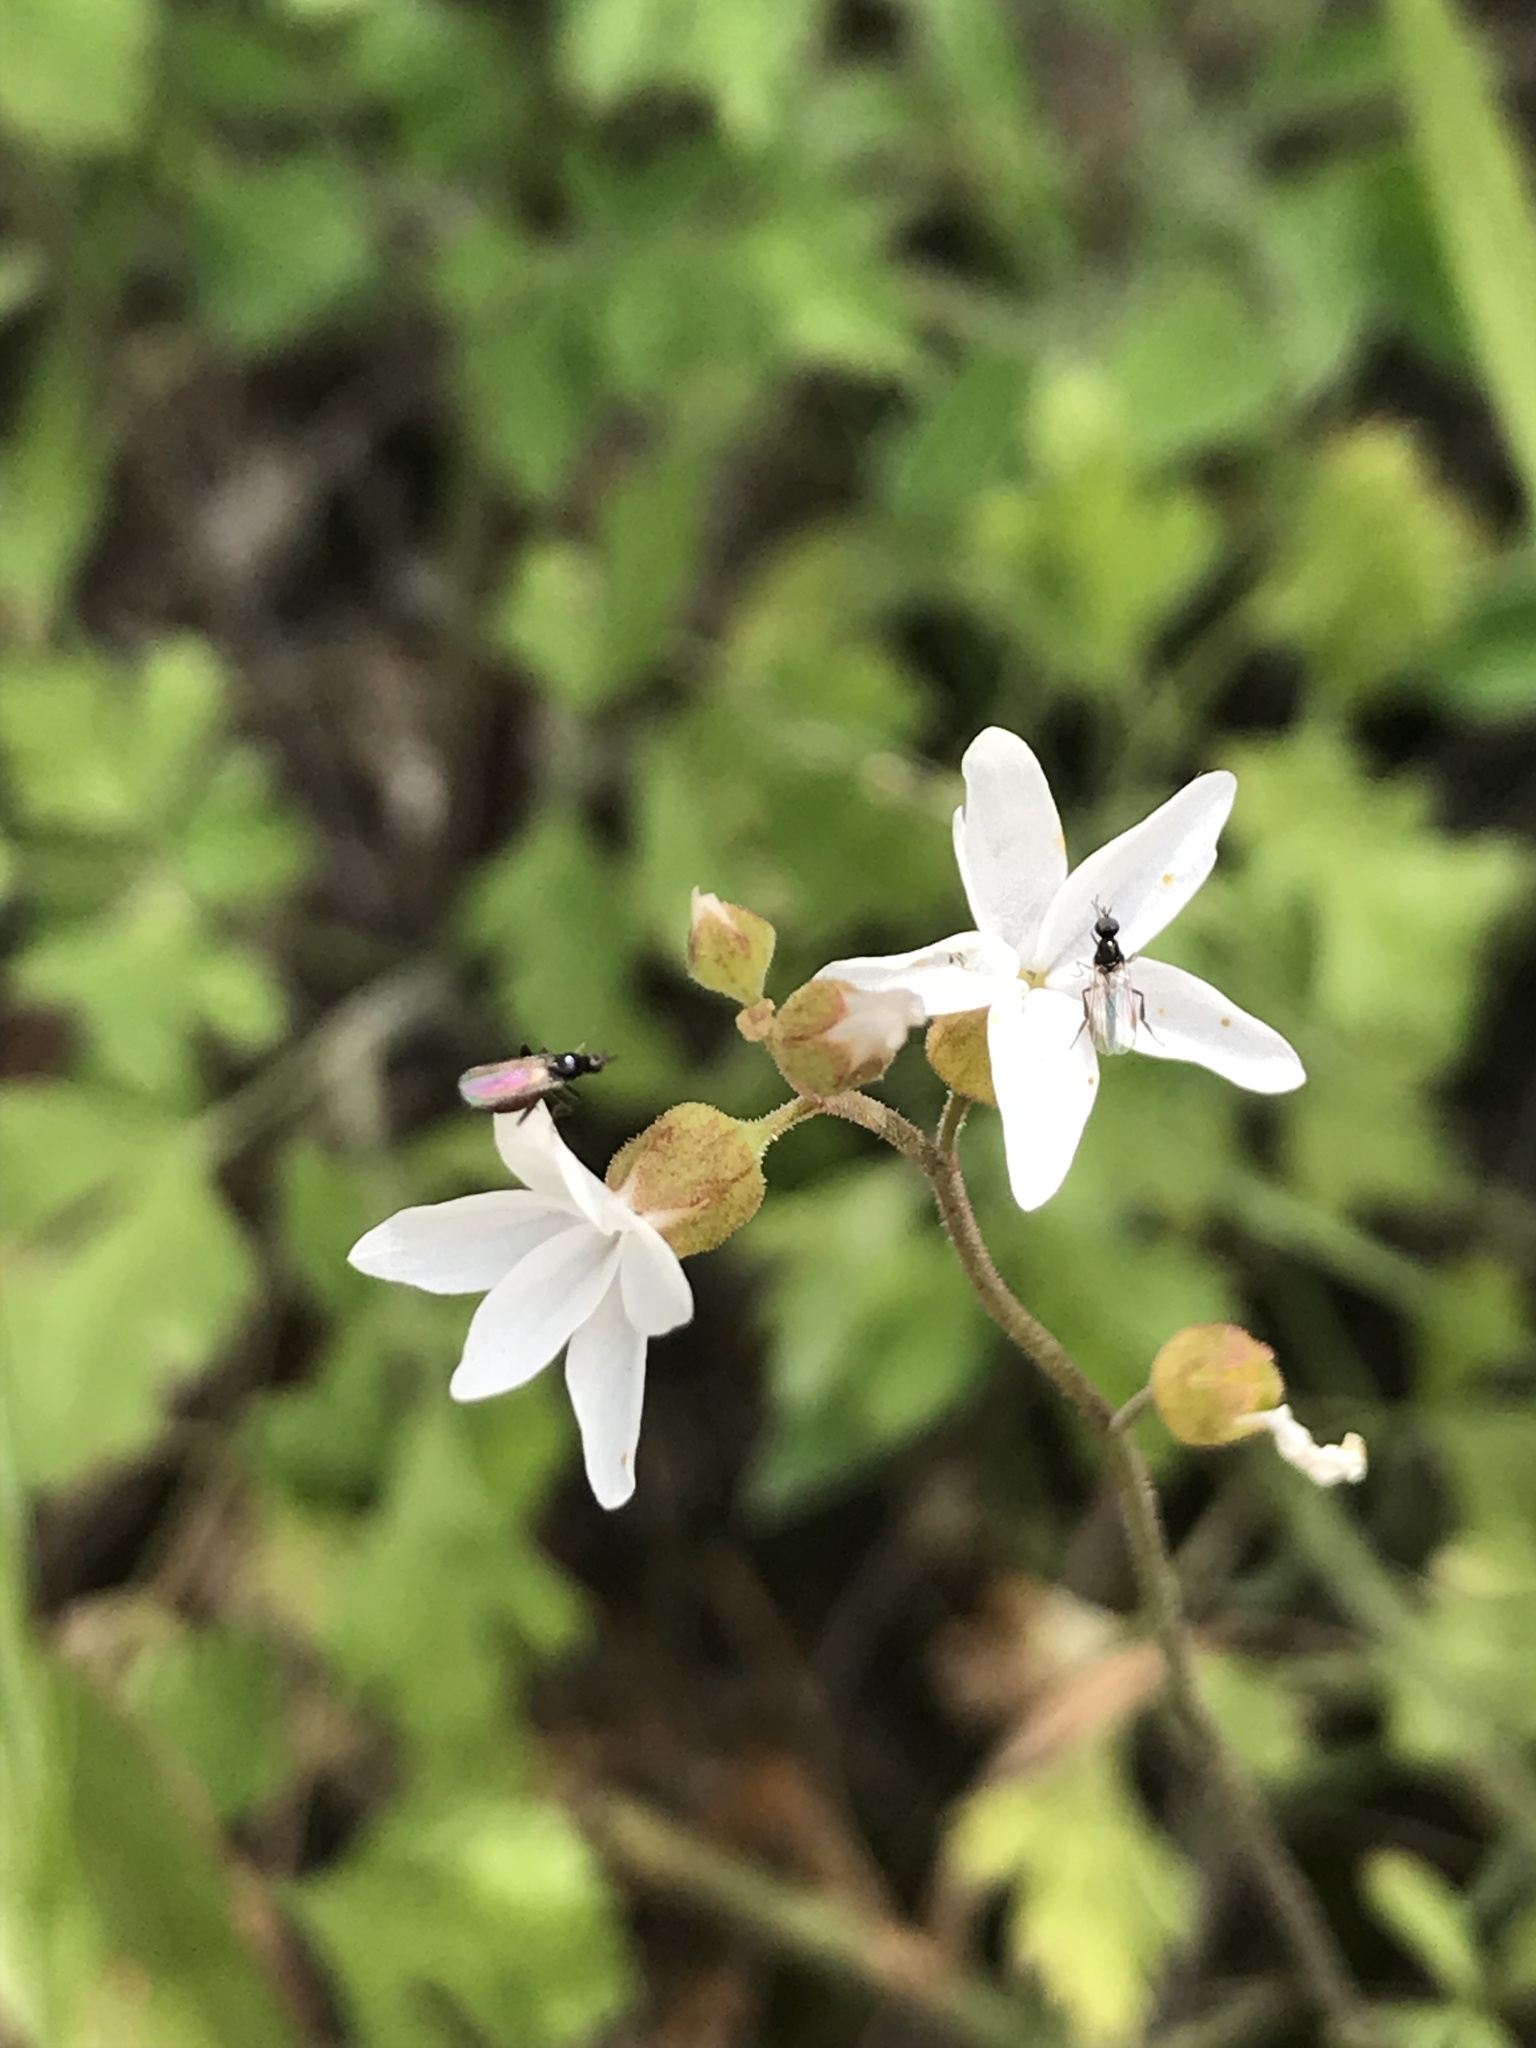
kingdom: Plantae
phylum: Tracheophyta
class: Magnoliopsida
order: Saxifragales
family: Saxifragaceae
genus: Lithophragma
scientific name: Lithophragma affine
